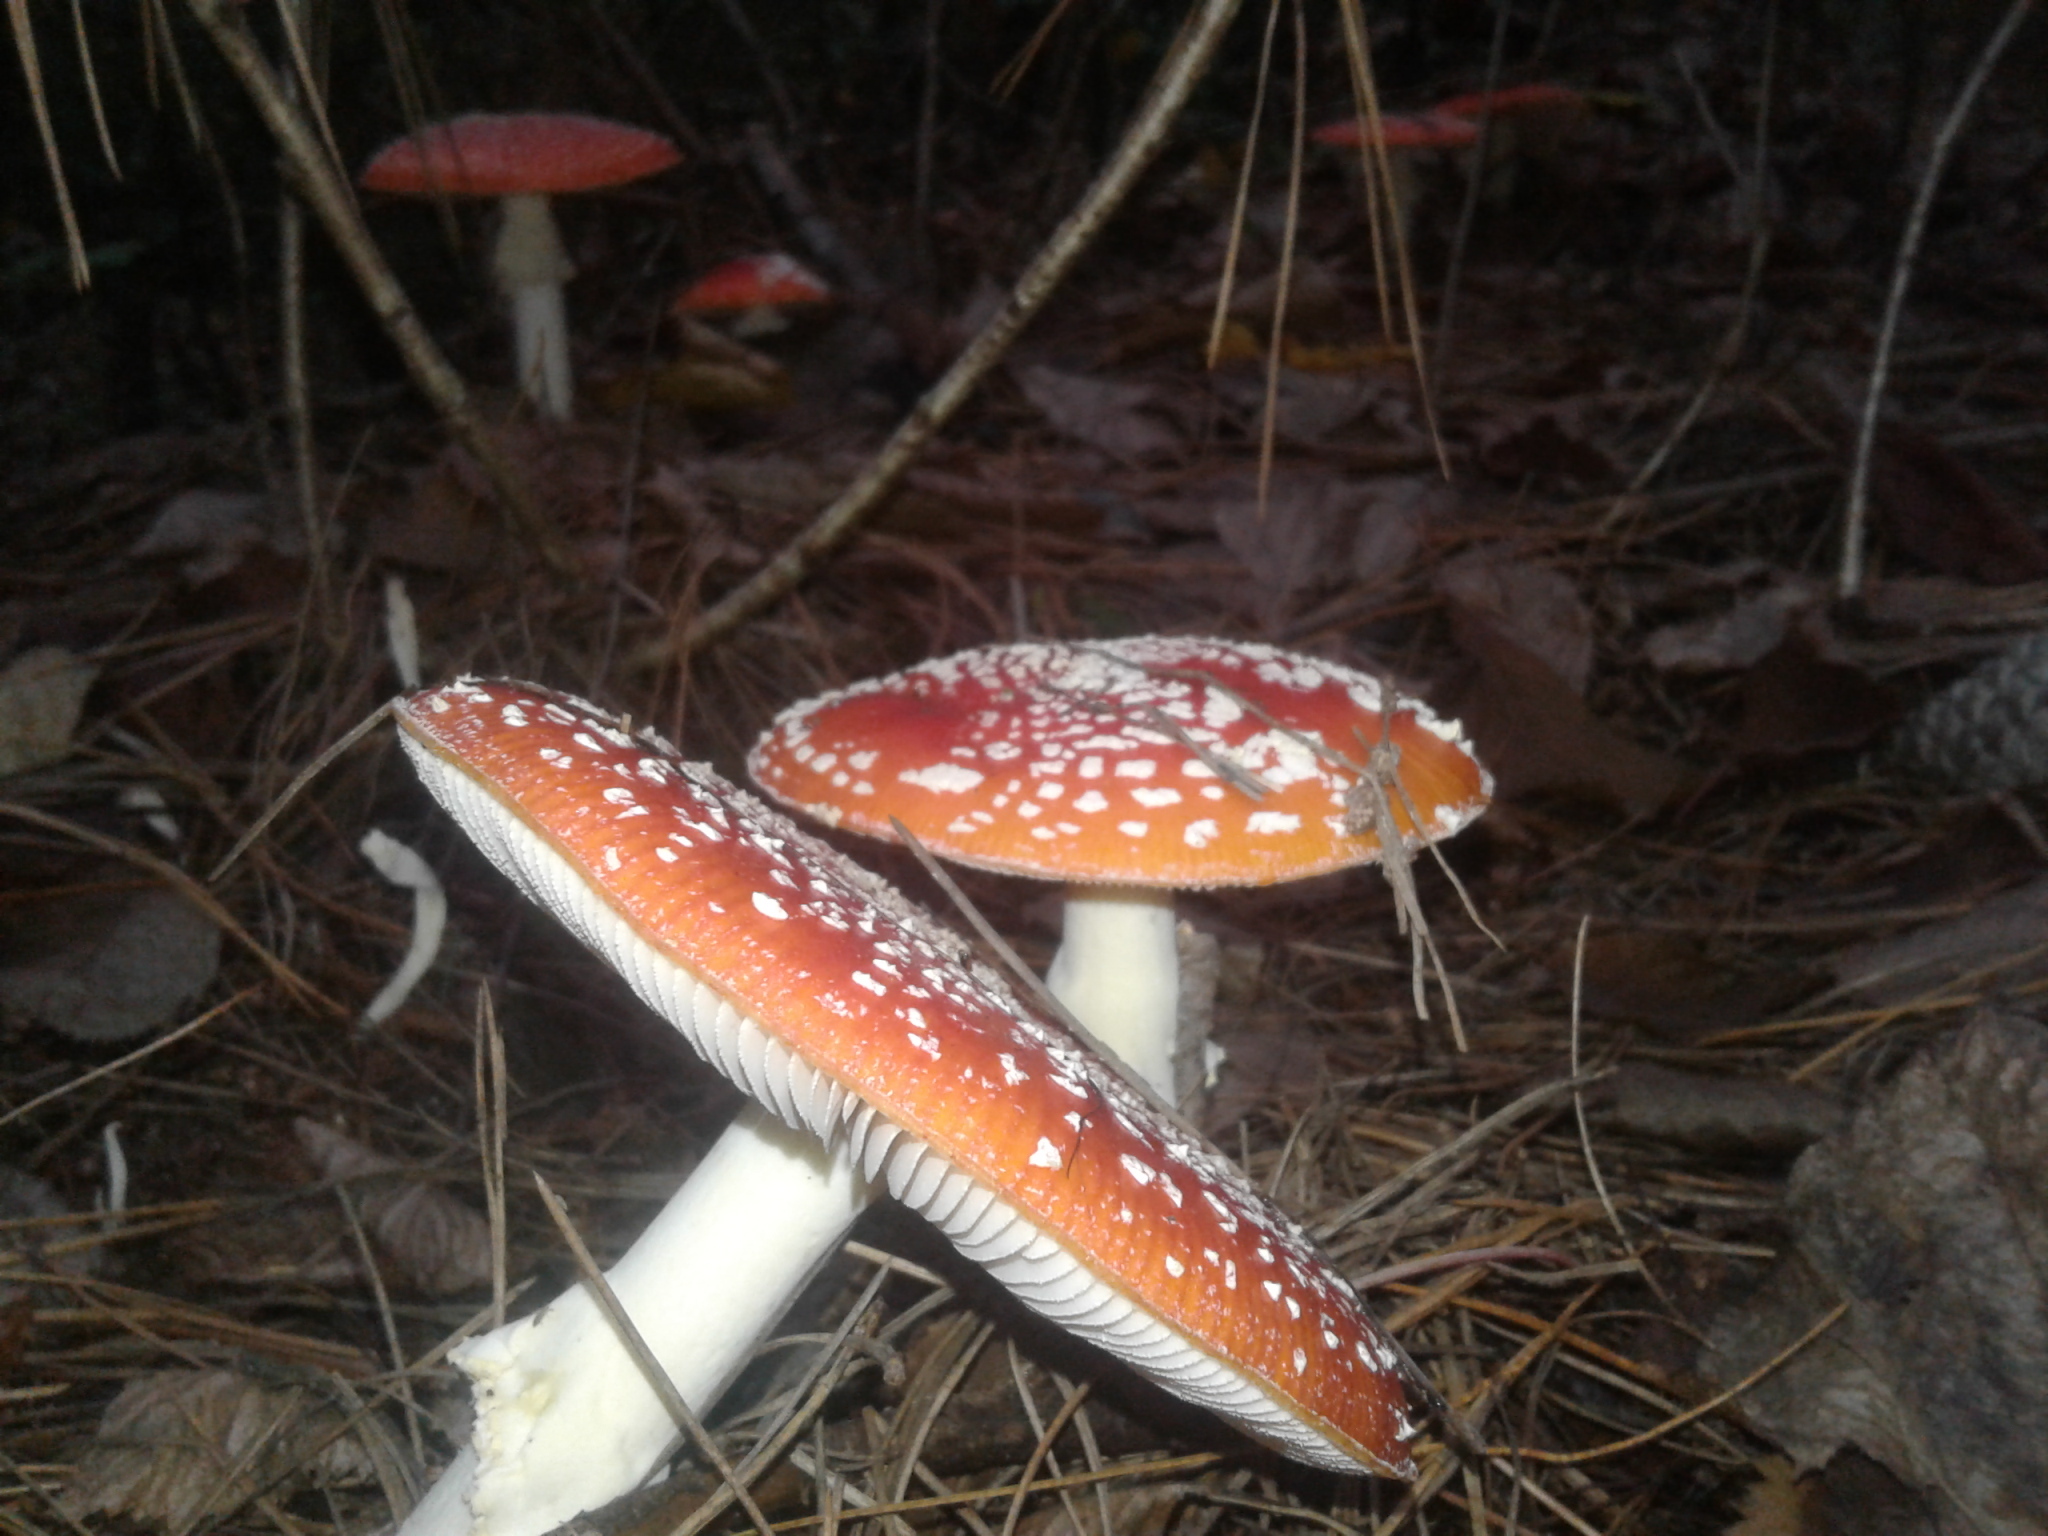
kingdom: Fungi
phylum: Basidiomycota
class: Agaricomycetes
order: Agaricales
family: Amanitaceae
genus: Amanita
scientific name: Amanita muscaria
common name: Fly agaric
